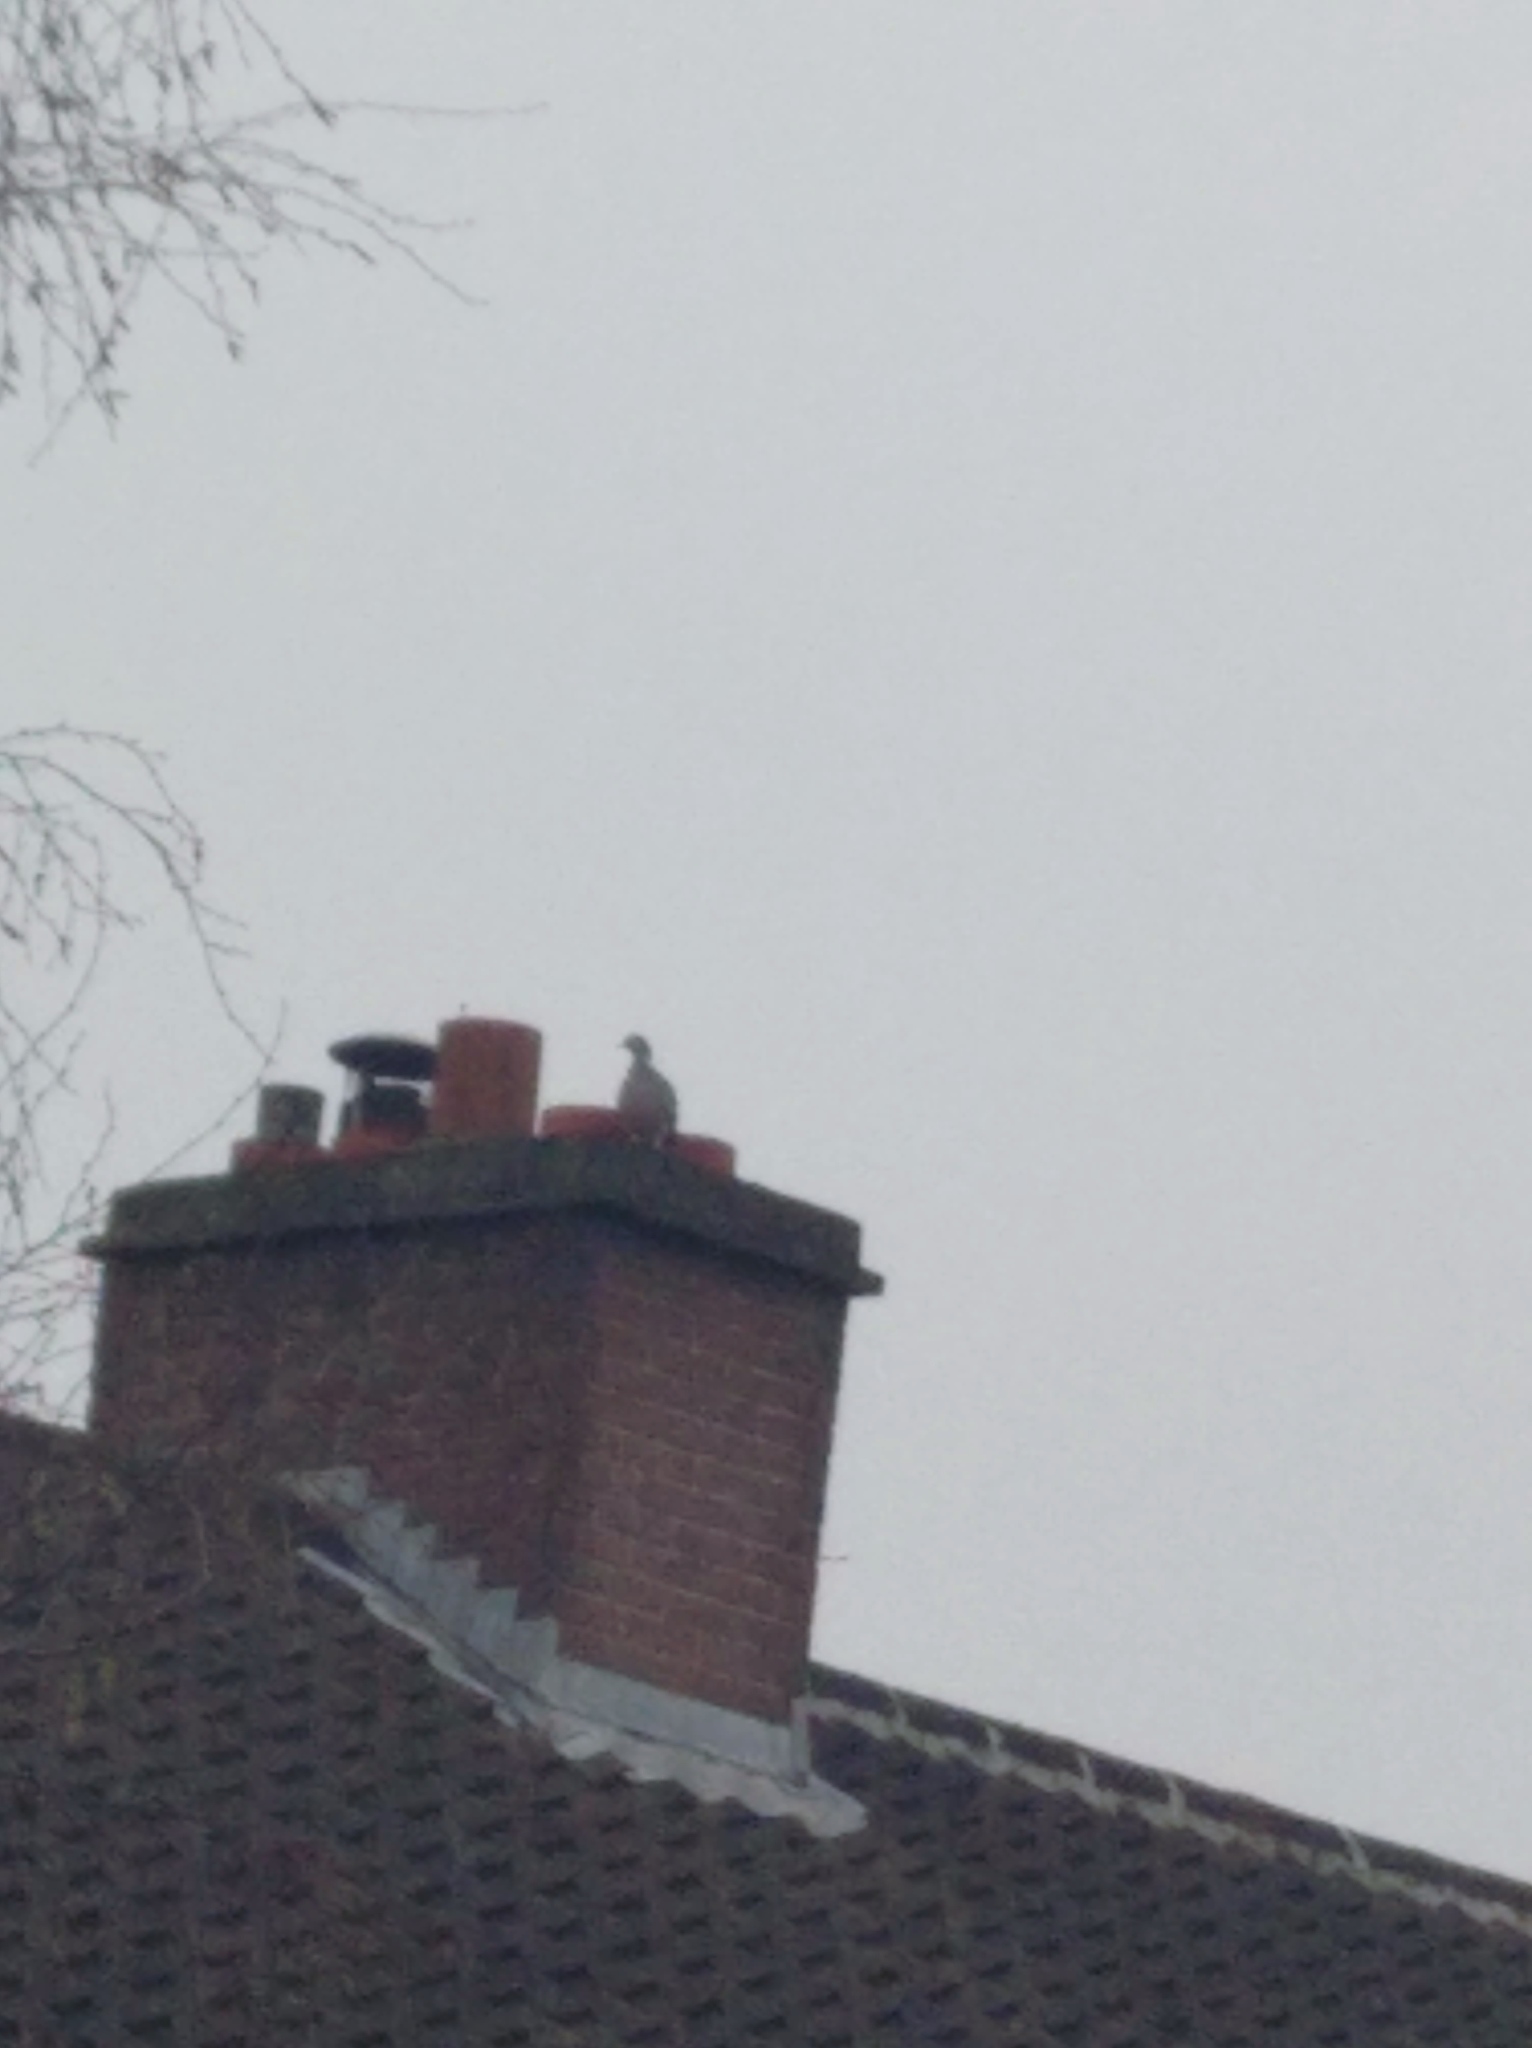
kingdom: Animalia
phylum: Chordata
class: Aves
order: Columbiformes
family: Columbidae
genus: Columba
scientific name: Columba palumbus
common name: Common wood pigeon
